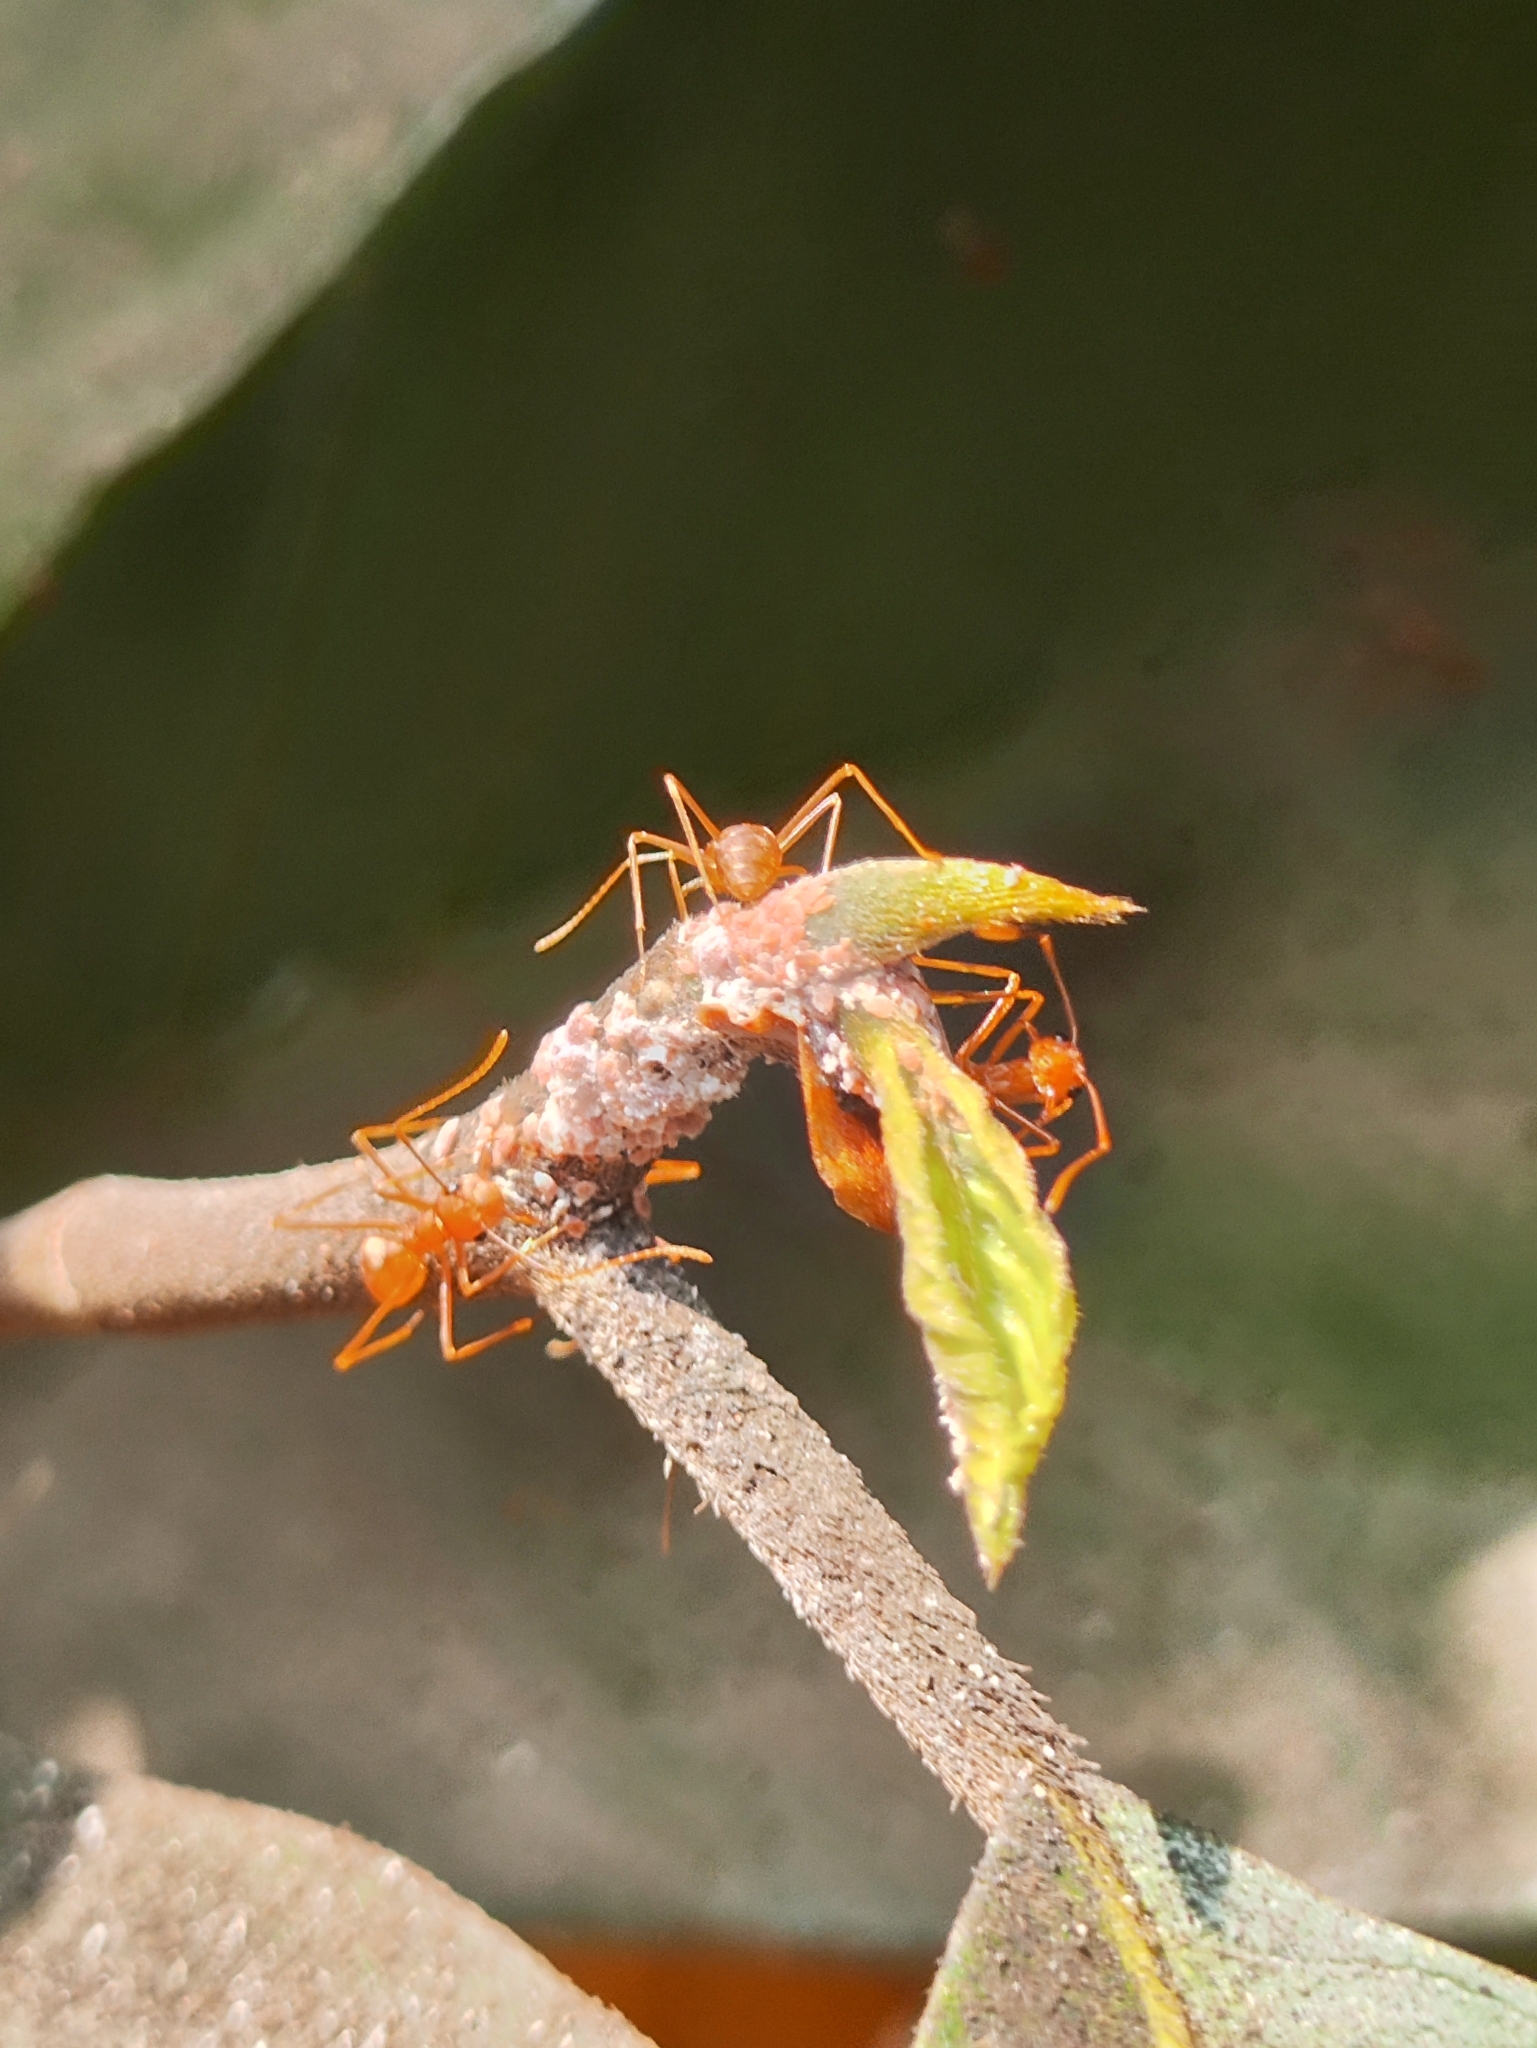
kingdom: Animalia
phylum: Arthropoda
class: Insecta
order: Hymenoptera
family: Formicidae
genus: Oecophylla
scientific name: Oecophylla smaragdina
